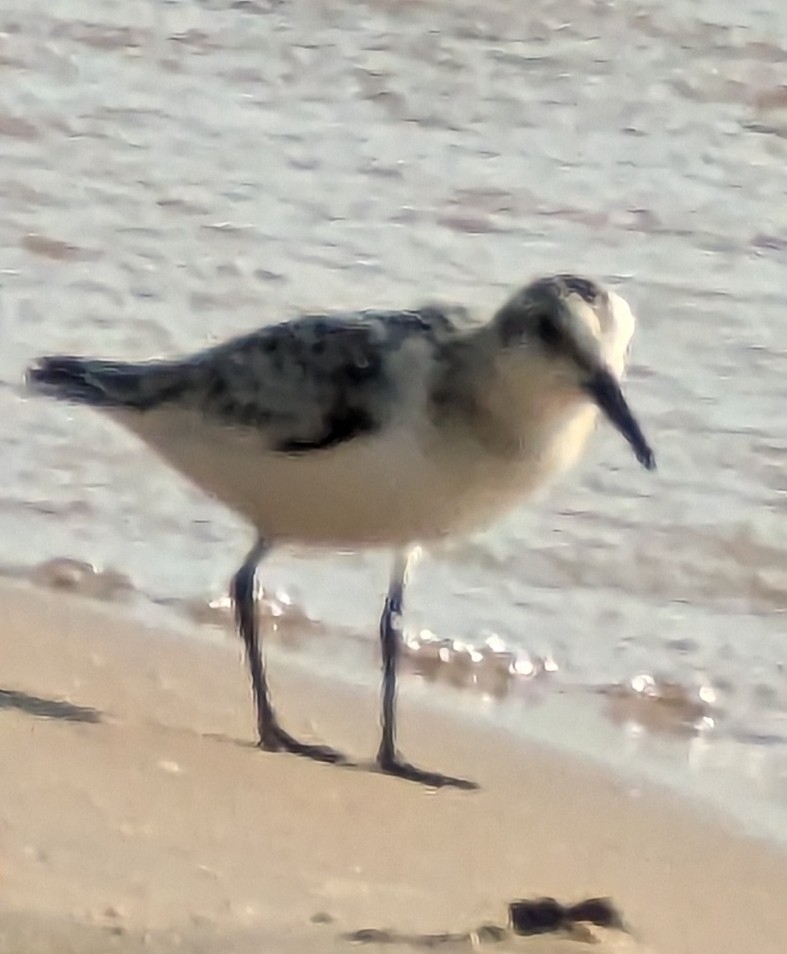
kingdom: Animalia
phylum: Chordata
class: Aves
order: Charadriiformes
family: Scolopacidae
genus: Calidris
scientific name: Calidris alba
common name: Sanderling
